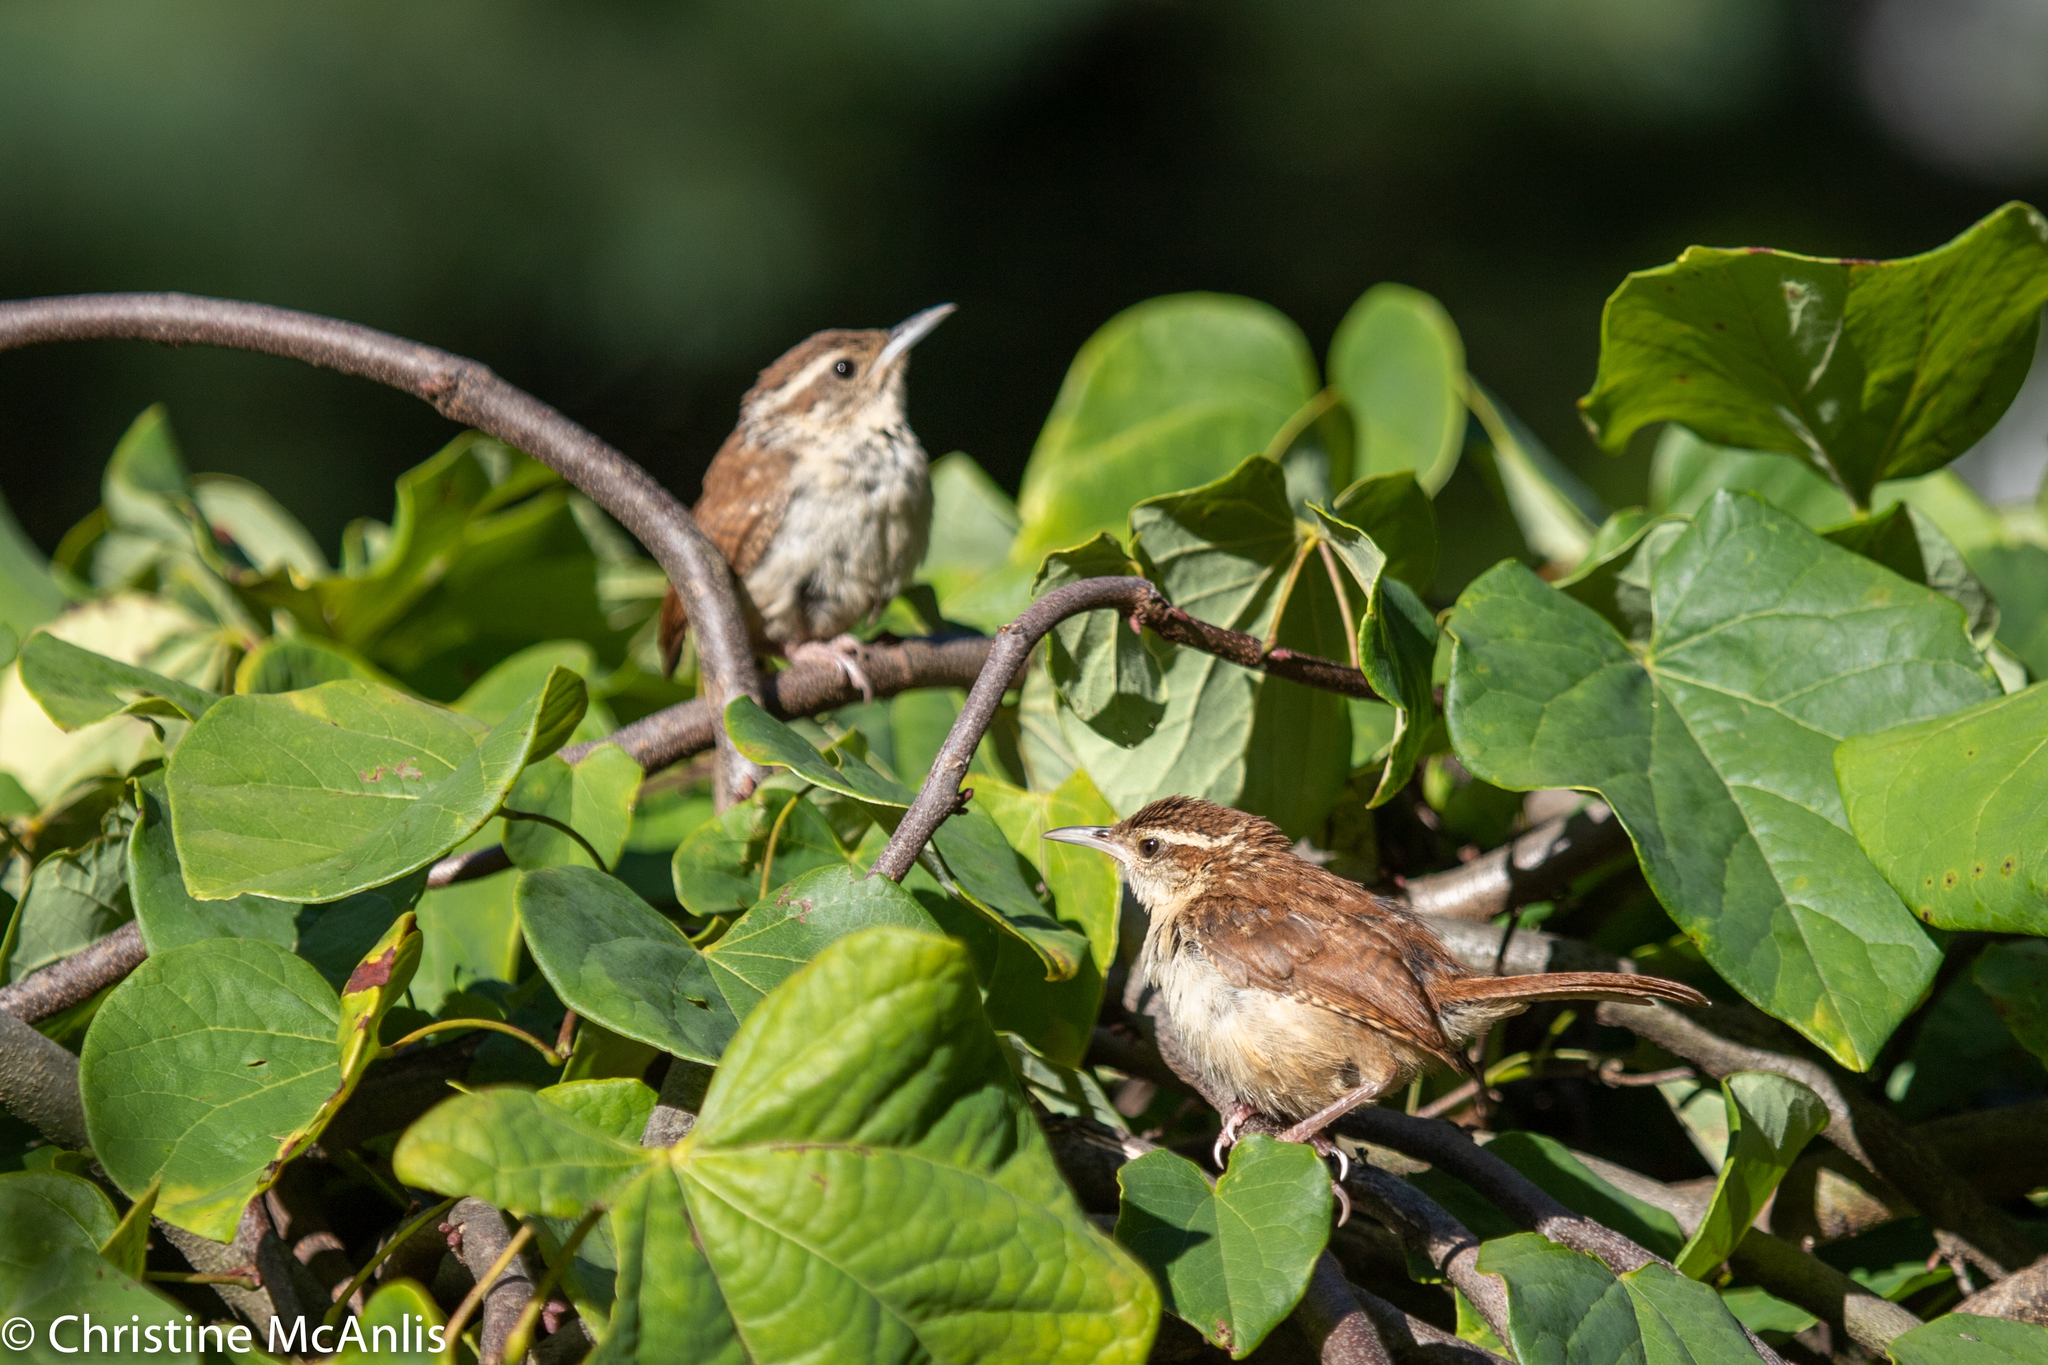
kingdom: Animalia
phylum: Chordata
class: Aves
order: Passeriformes
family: Troglodytidae
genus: Thryothorus
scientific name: Thryothorus ludovicianus
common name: Carolina wren
